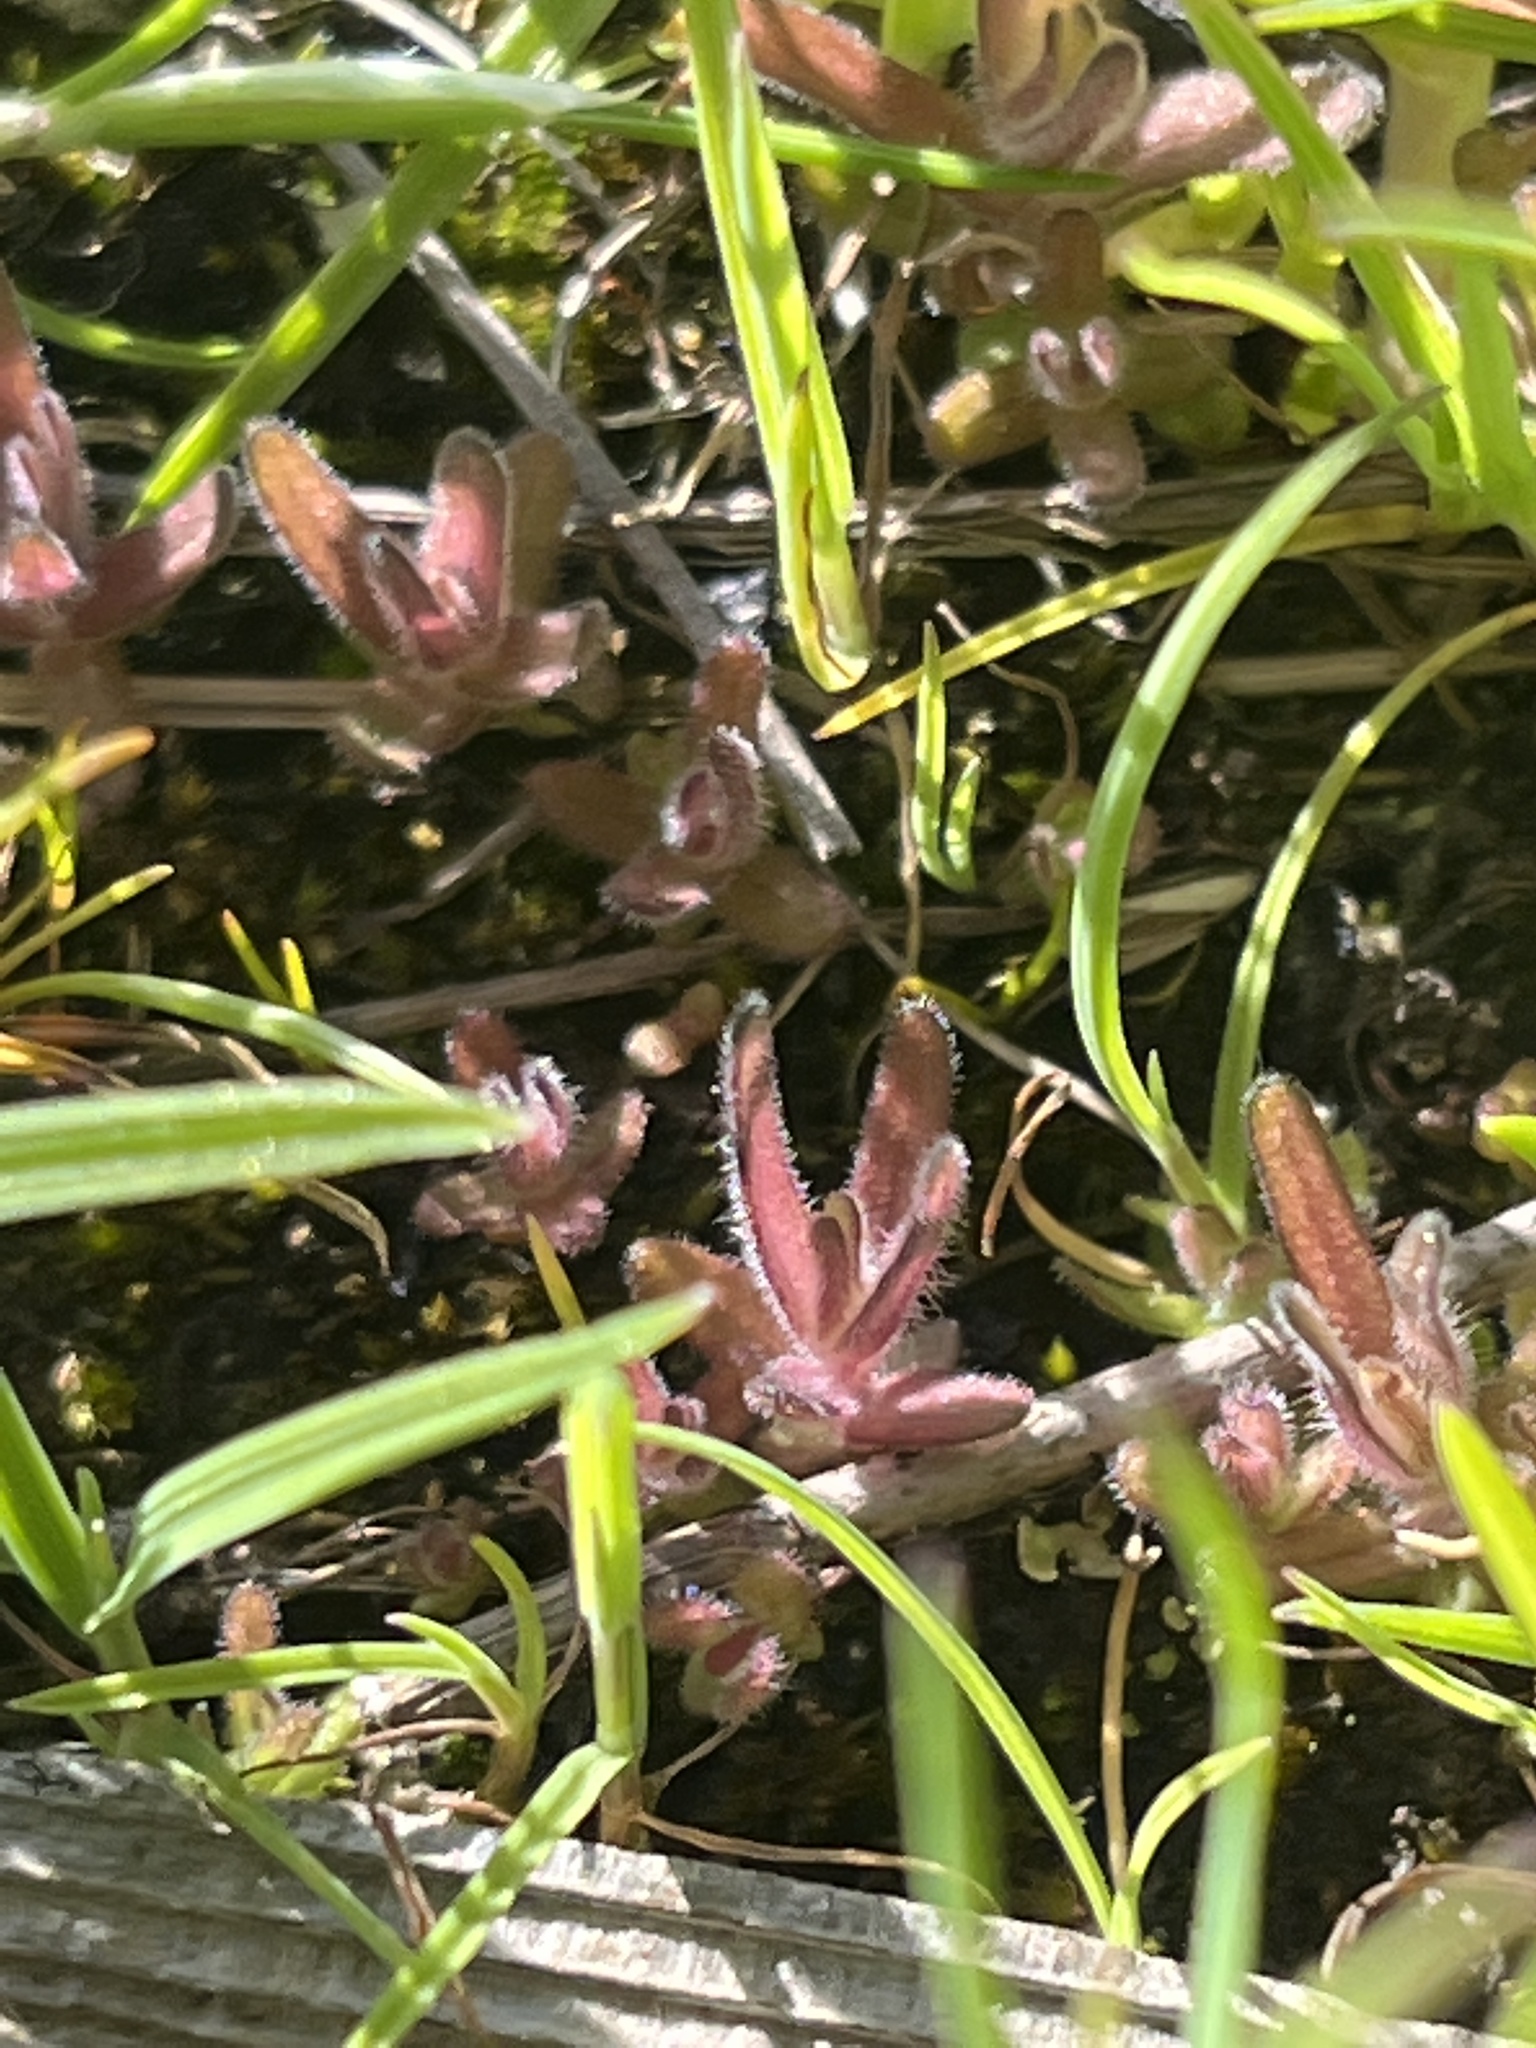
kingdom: Plantae
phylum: Tracheophyta
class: Magnoliopsida
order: Lamiales
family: Orobanchaceae
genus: Castilleja
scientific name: Castilleja victoriae
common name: Victoria paintbrush
